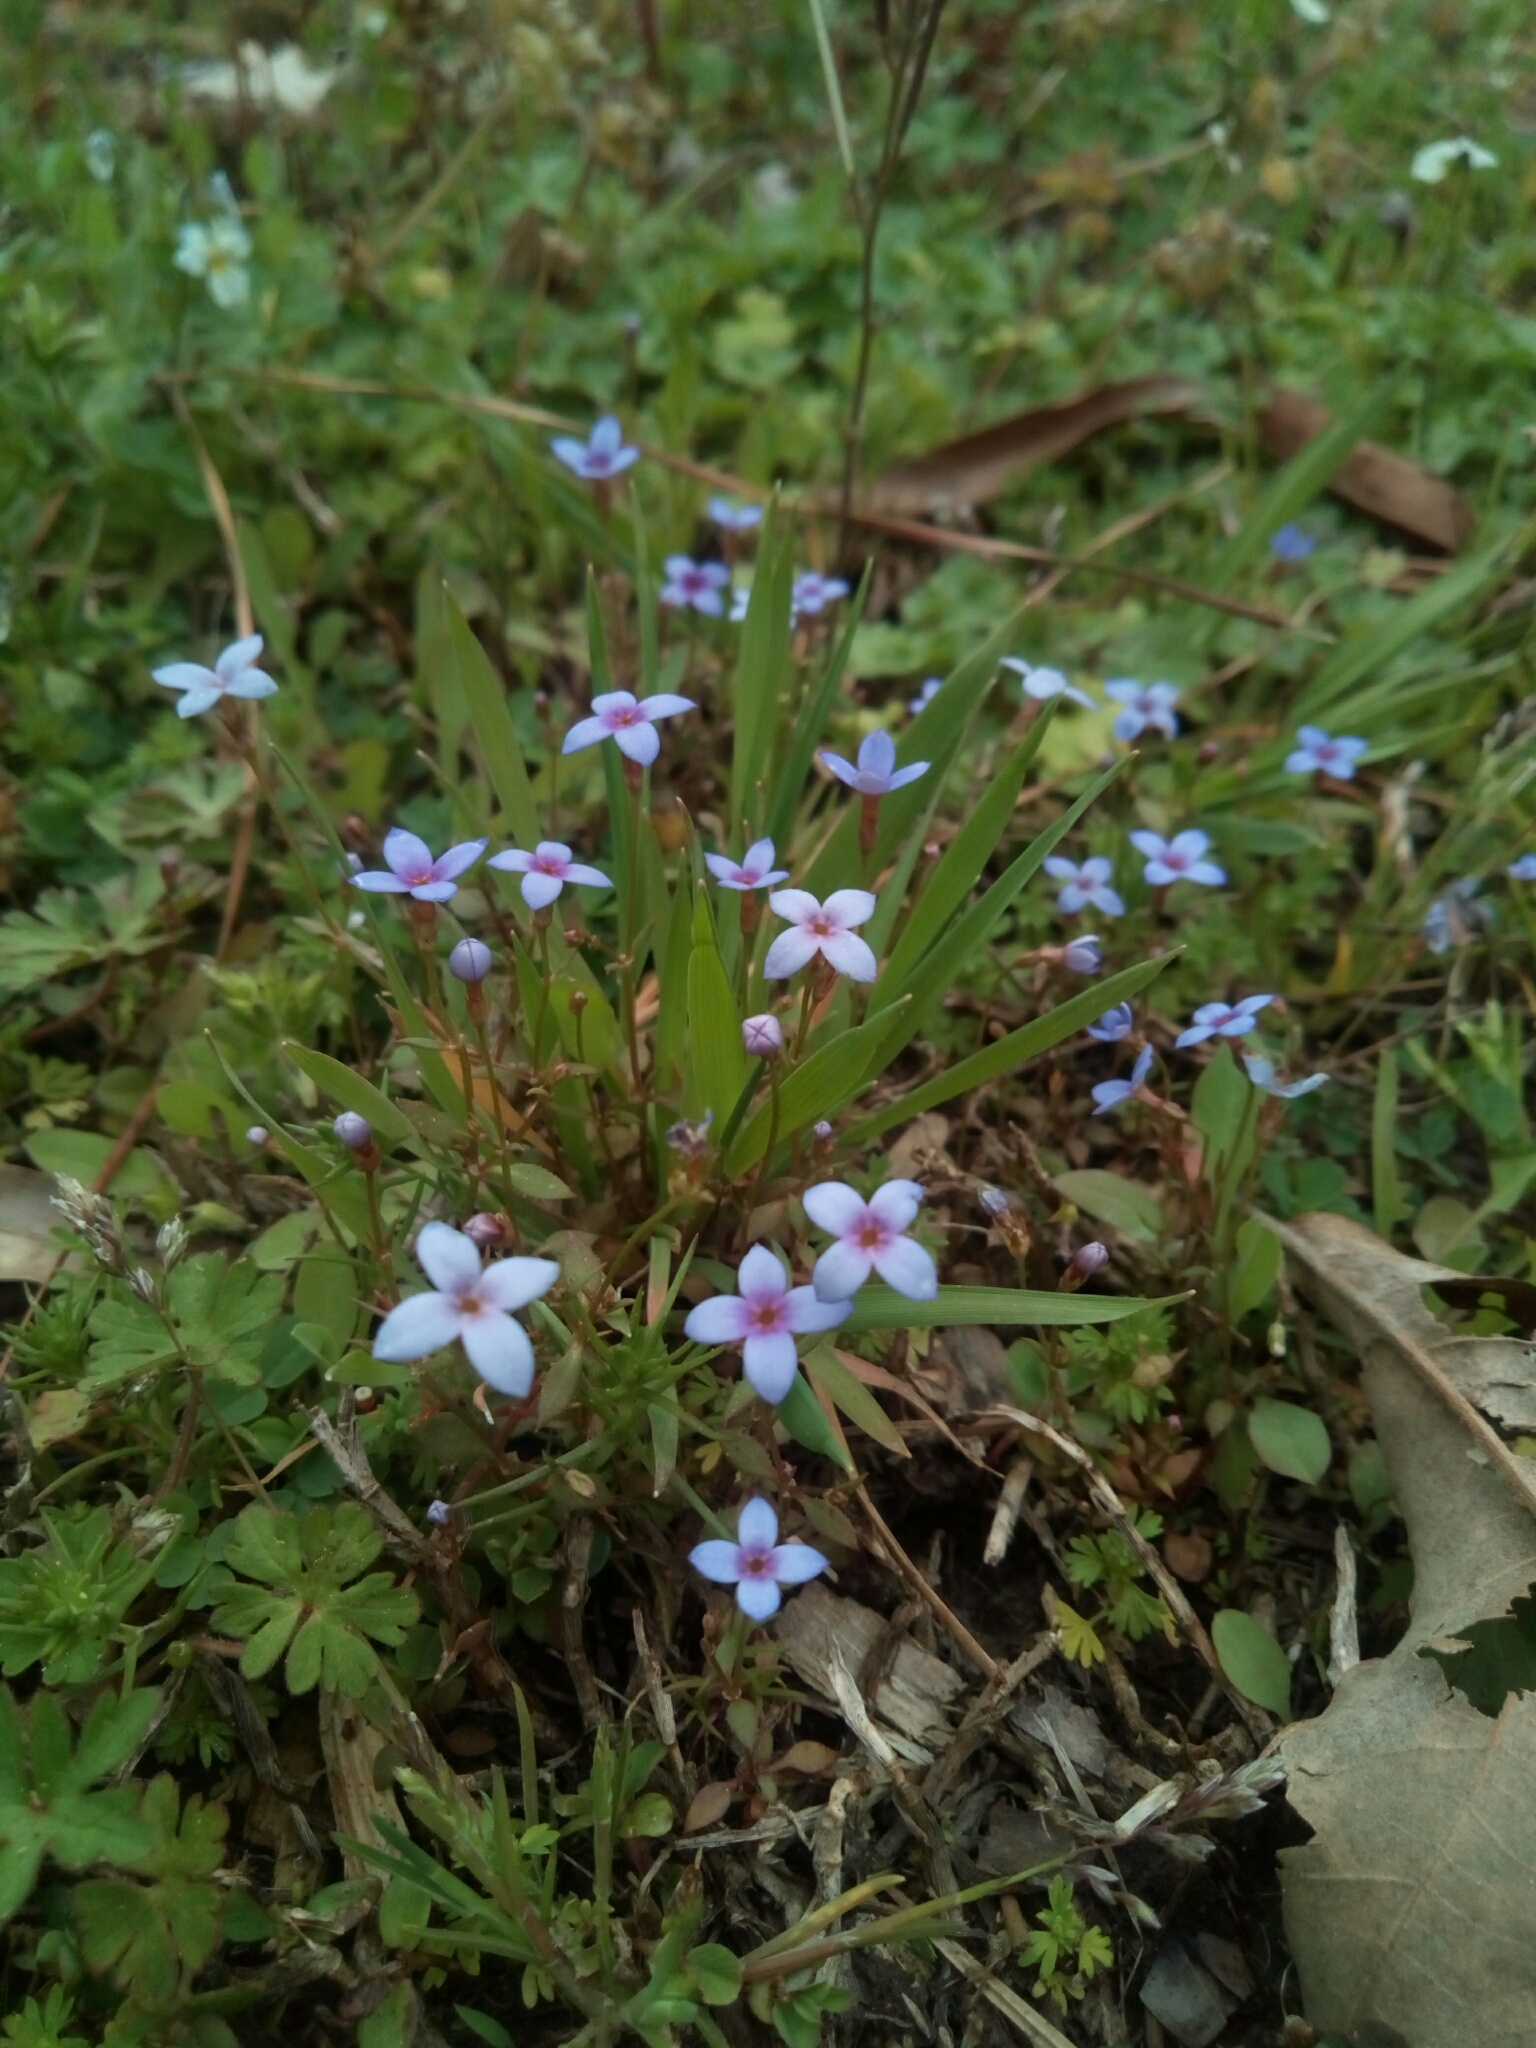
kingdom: Plantae
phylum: Tracheophyta
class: Magnoliopsida
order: Gentianales
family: Rubiaceae
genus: Houstonia
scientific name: Houstonia pusilla
